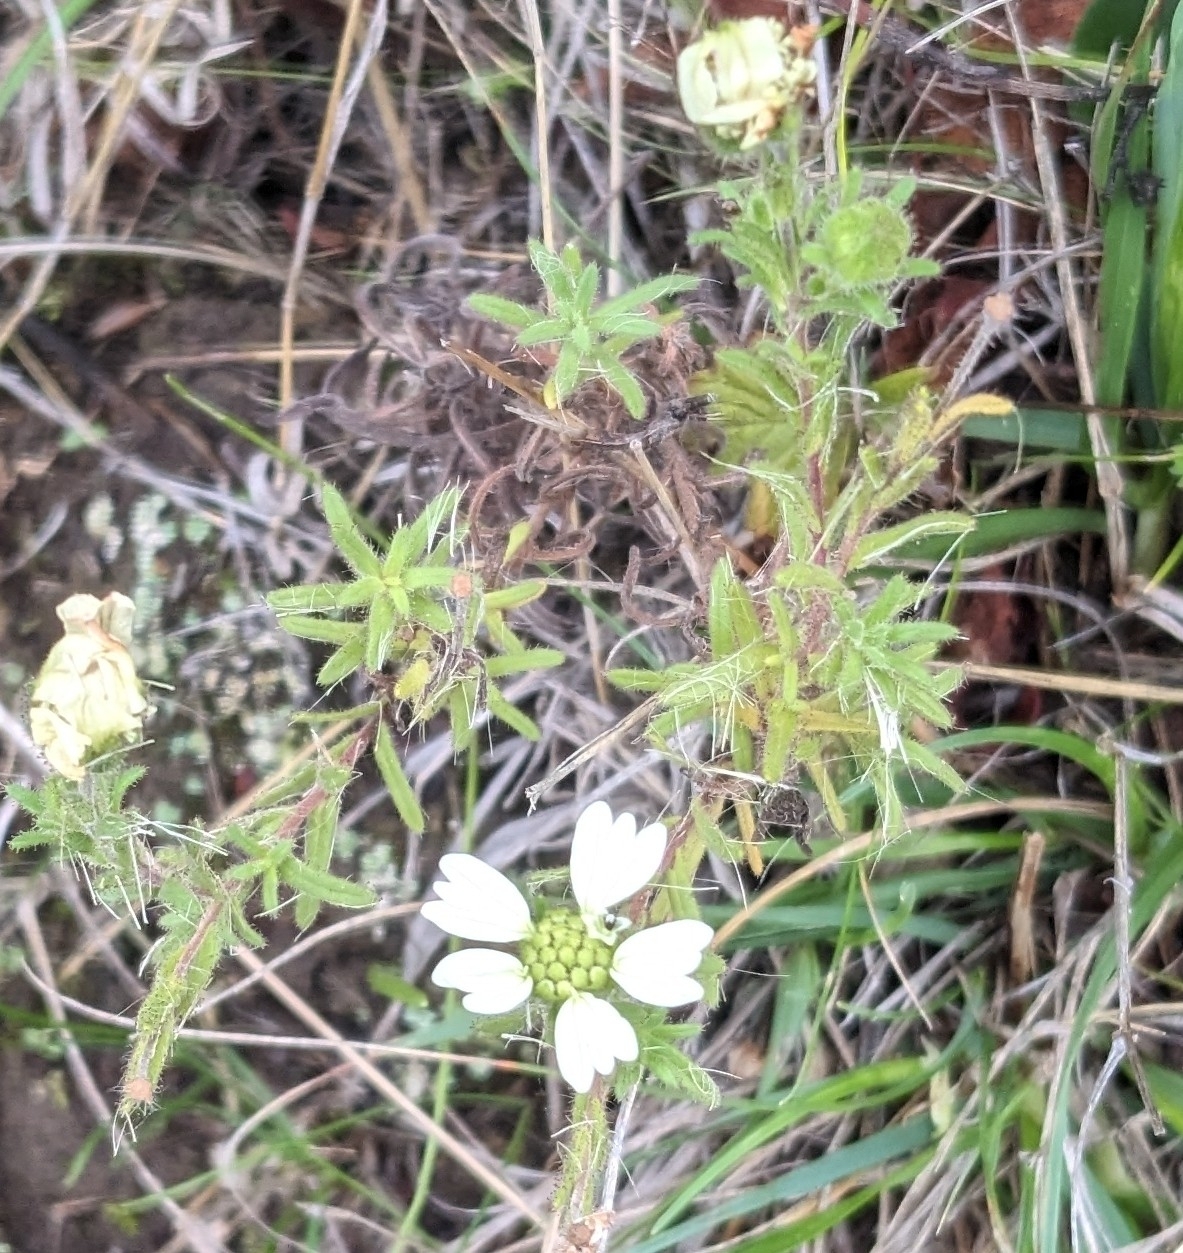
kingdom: Plantae
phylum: Tracheophyta
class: Magnoliopsida
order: Asterales
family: Asteraceae
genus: Hemizonia
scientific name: Hemizonia congesta
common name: Hayfield tarweed
